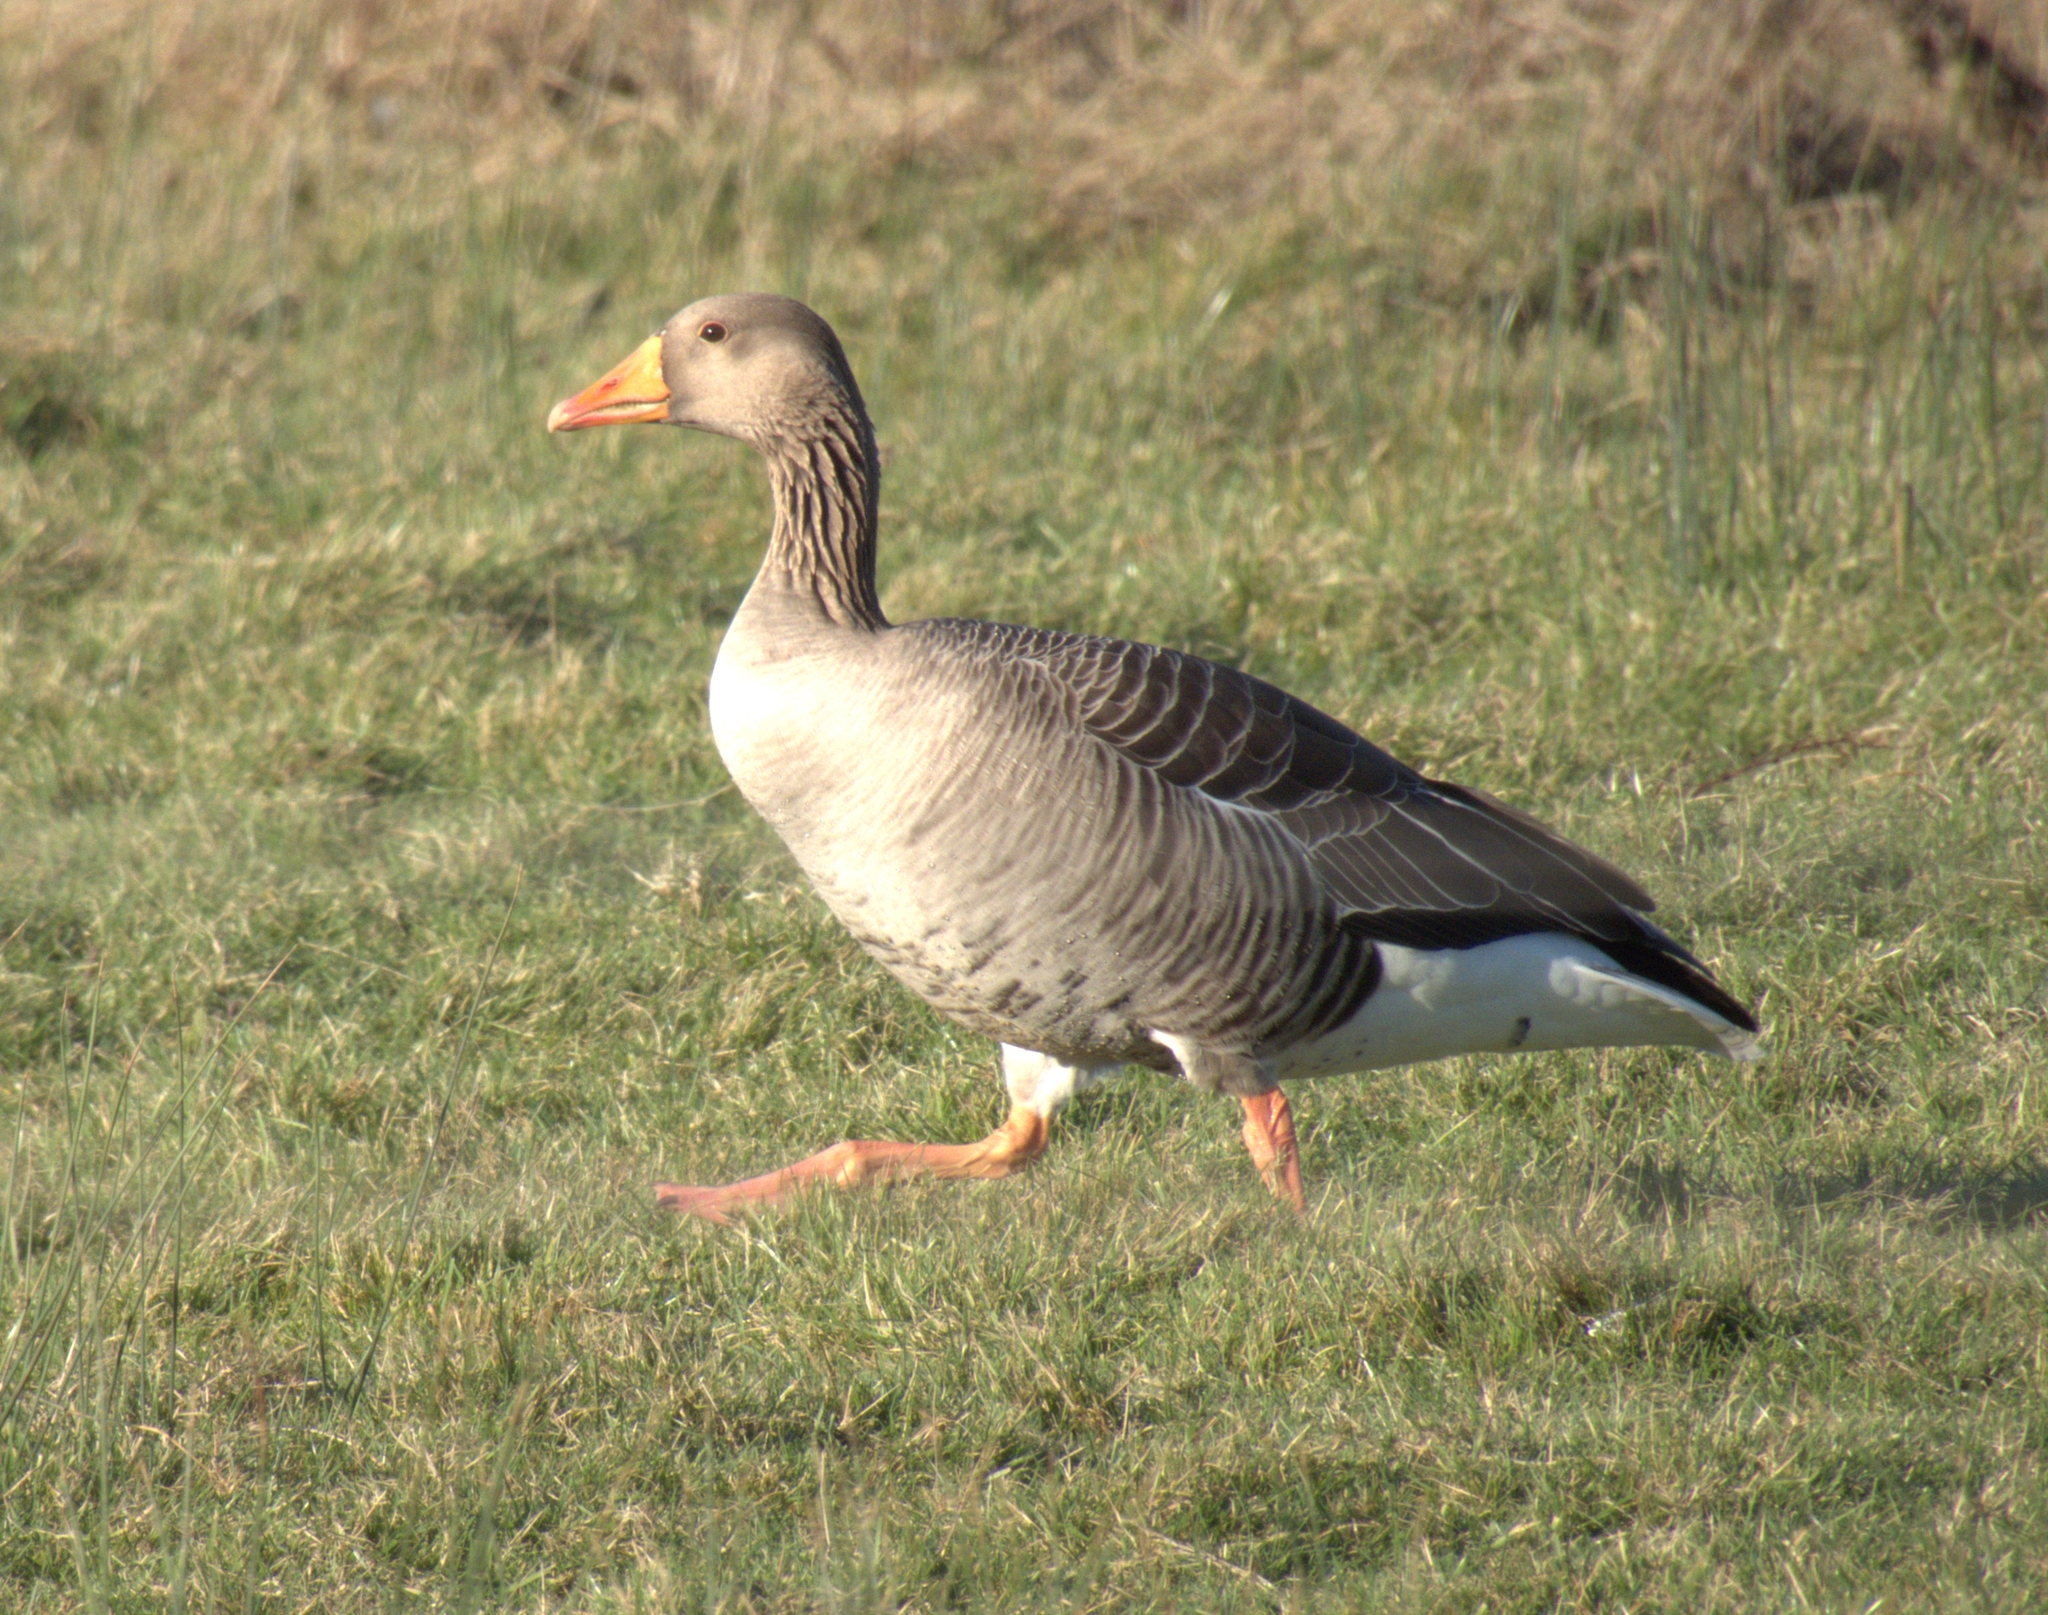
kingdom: Animalia
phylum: Chordata
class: Aves
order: Anseriformes
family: Anatidae
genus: Anser
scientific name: Anser anser
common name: Greylag goose
